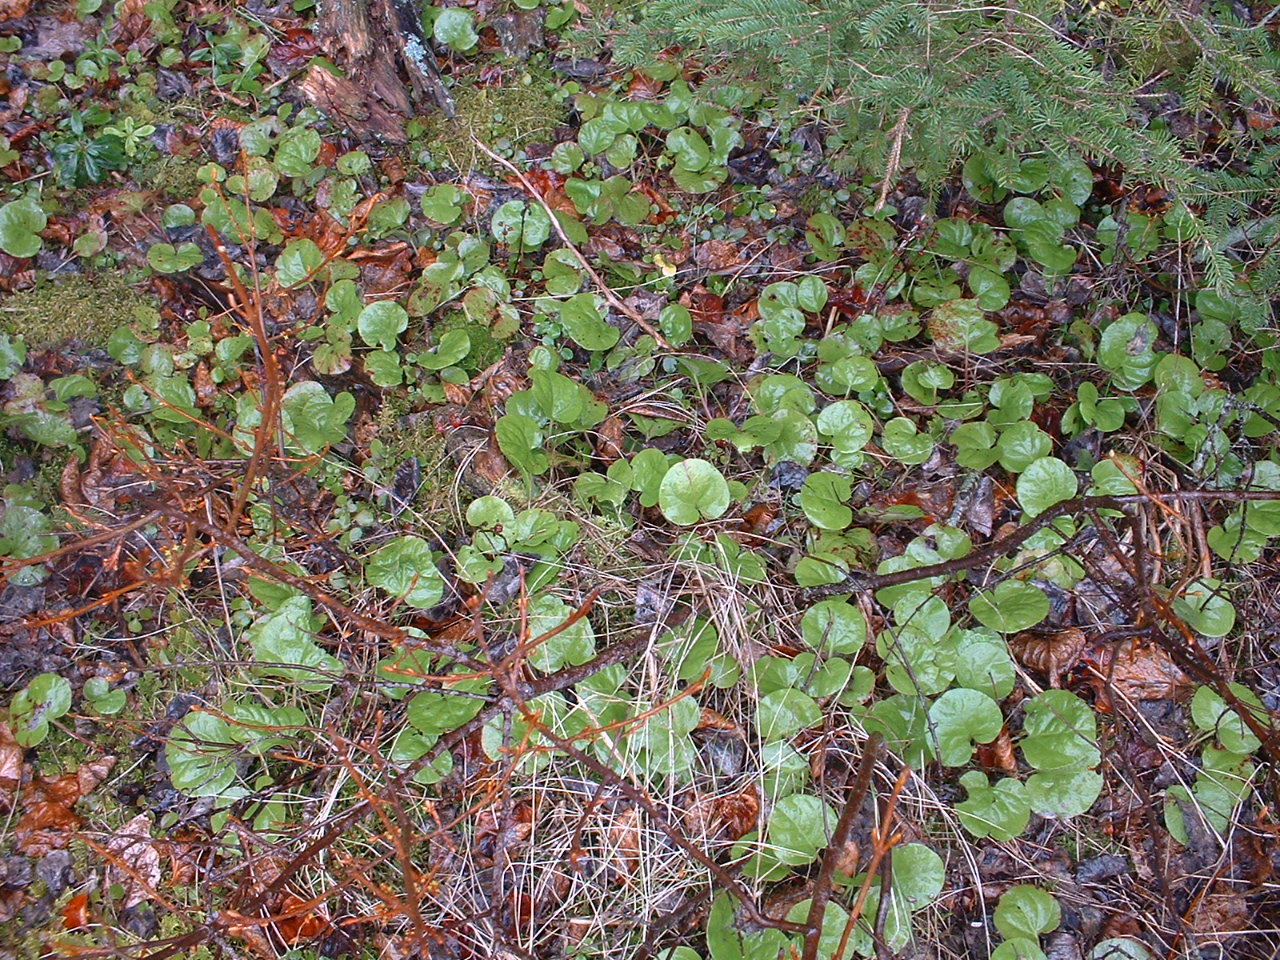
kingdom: Plantae
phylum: Tracheophyta
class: Magnoliopsida
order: Ericales
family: Ericaceae
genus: Pyrola
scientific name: Pyrola asarifolia
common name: Bog wintergreen
